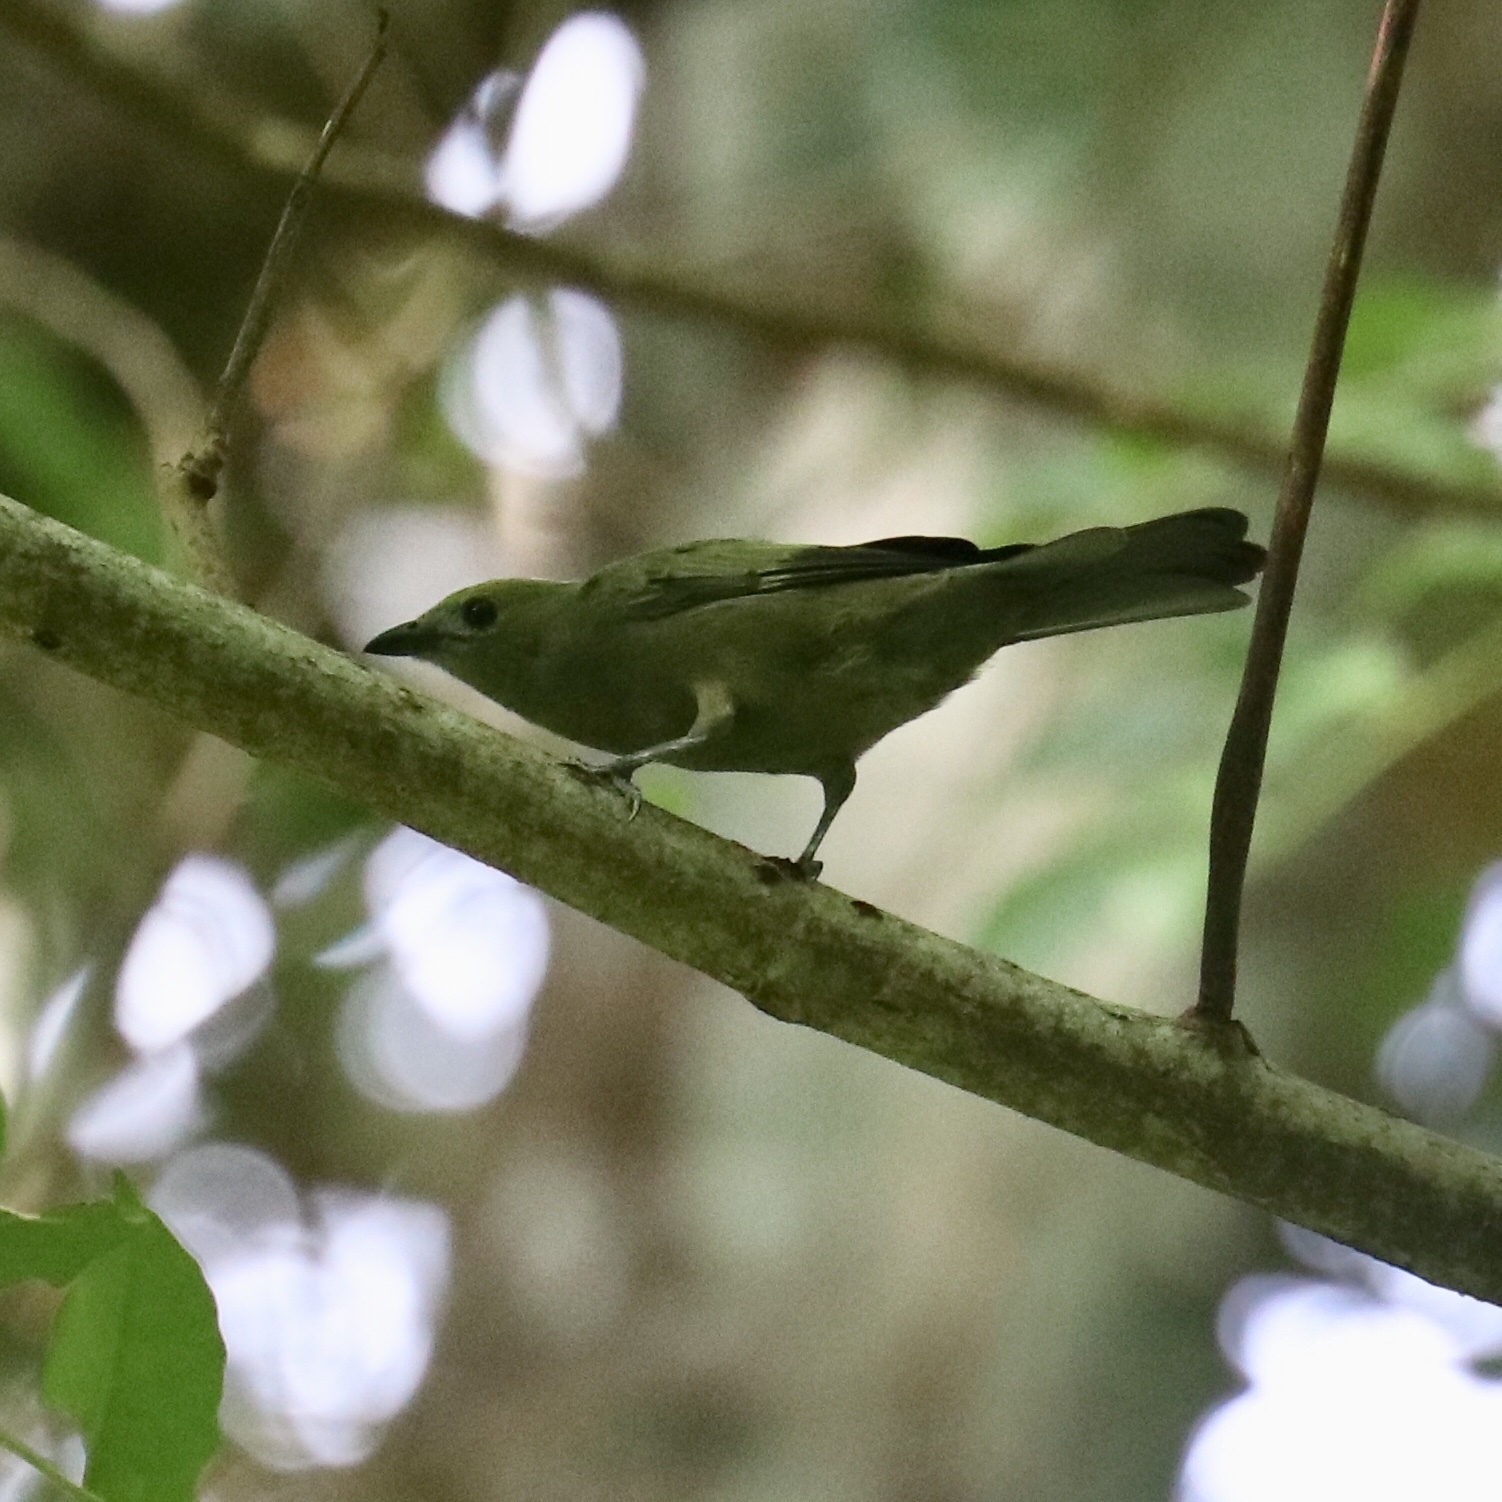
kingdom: Animalia
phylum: Chordata
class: Aves
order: Passeriformes
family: Thraupidae
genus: Thraupis
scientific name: Thraupis palmarum
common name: Palm tanager
